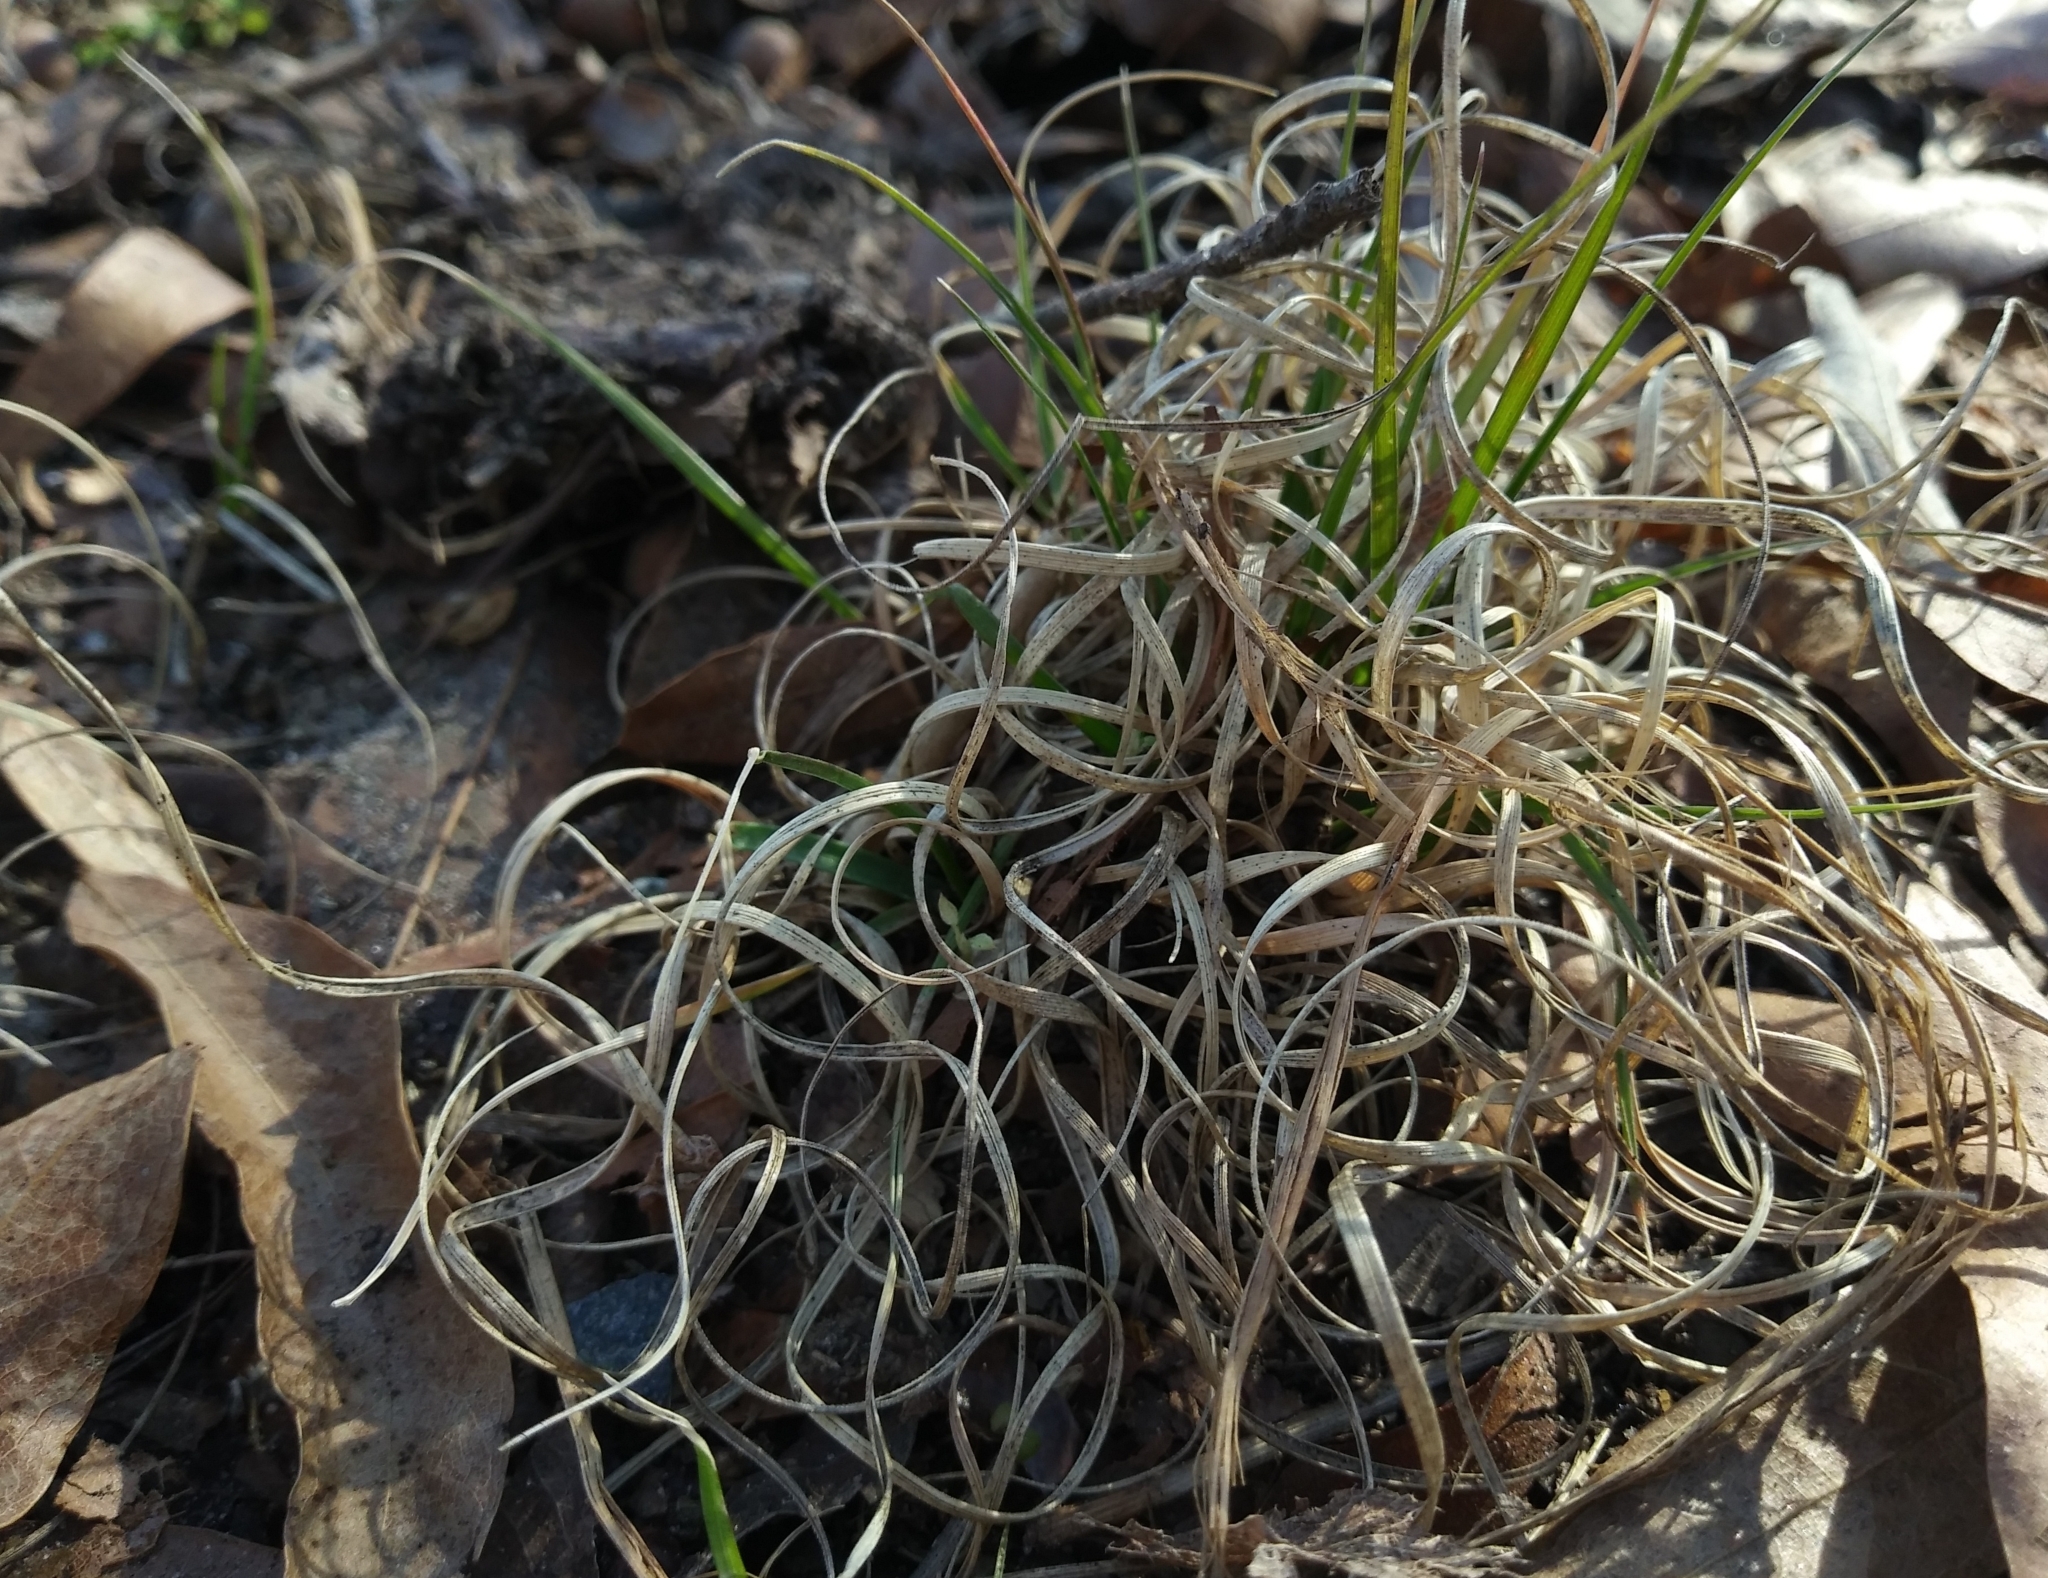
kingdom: Plantae
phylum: Tracheophyta
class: Liliopsida
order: Poales
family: Poaceae
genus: Danthonia
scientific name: Danthonia spicata
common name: Common wild oatgrass
